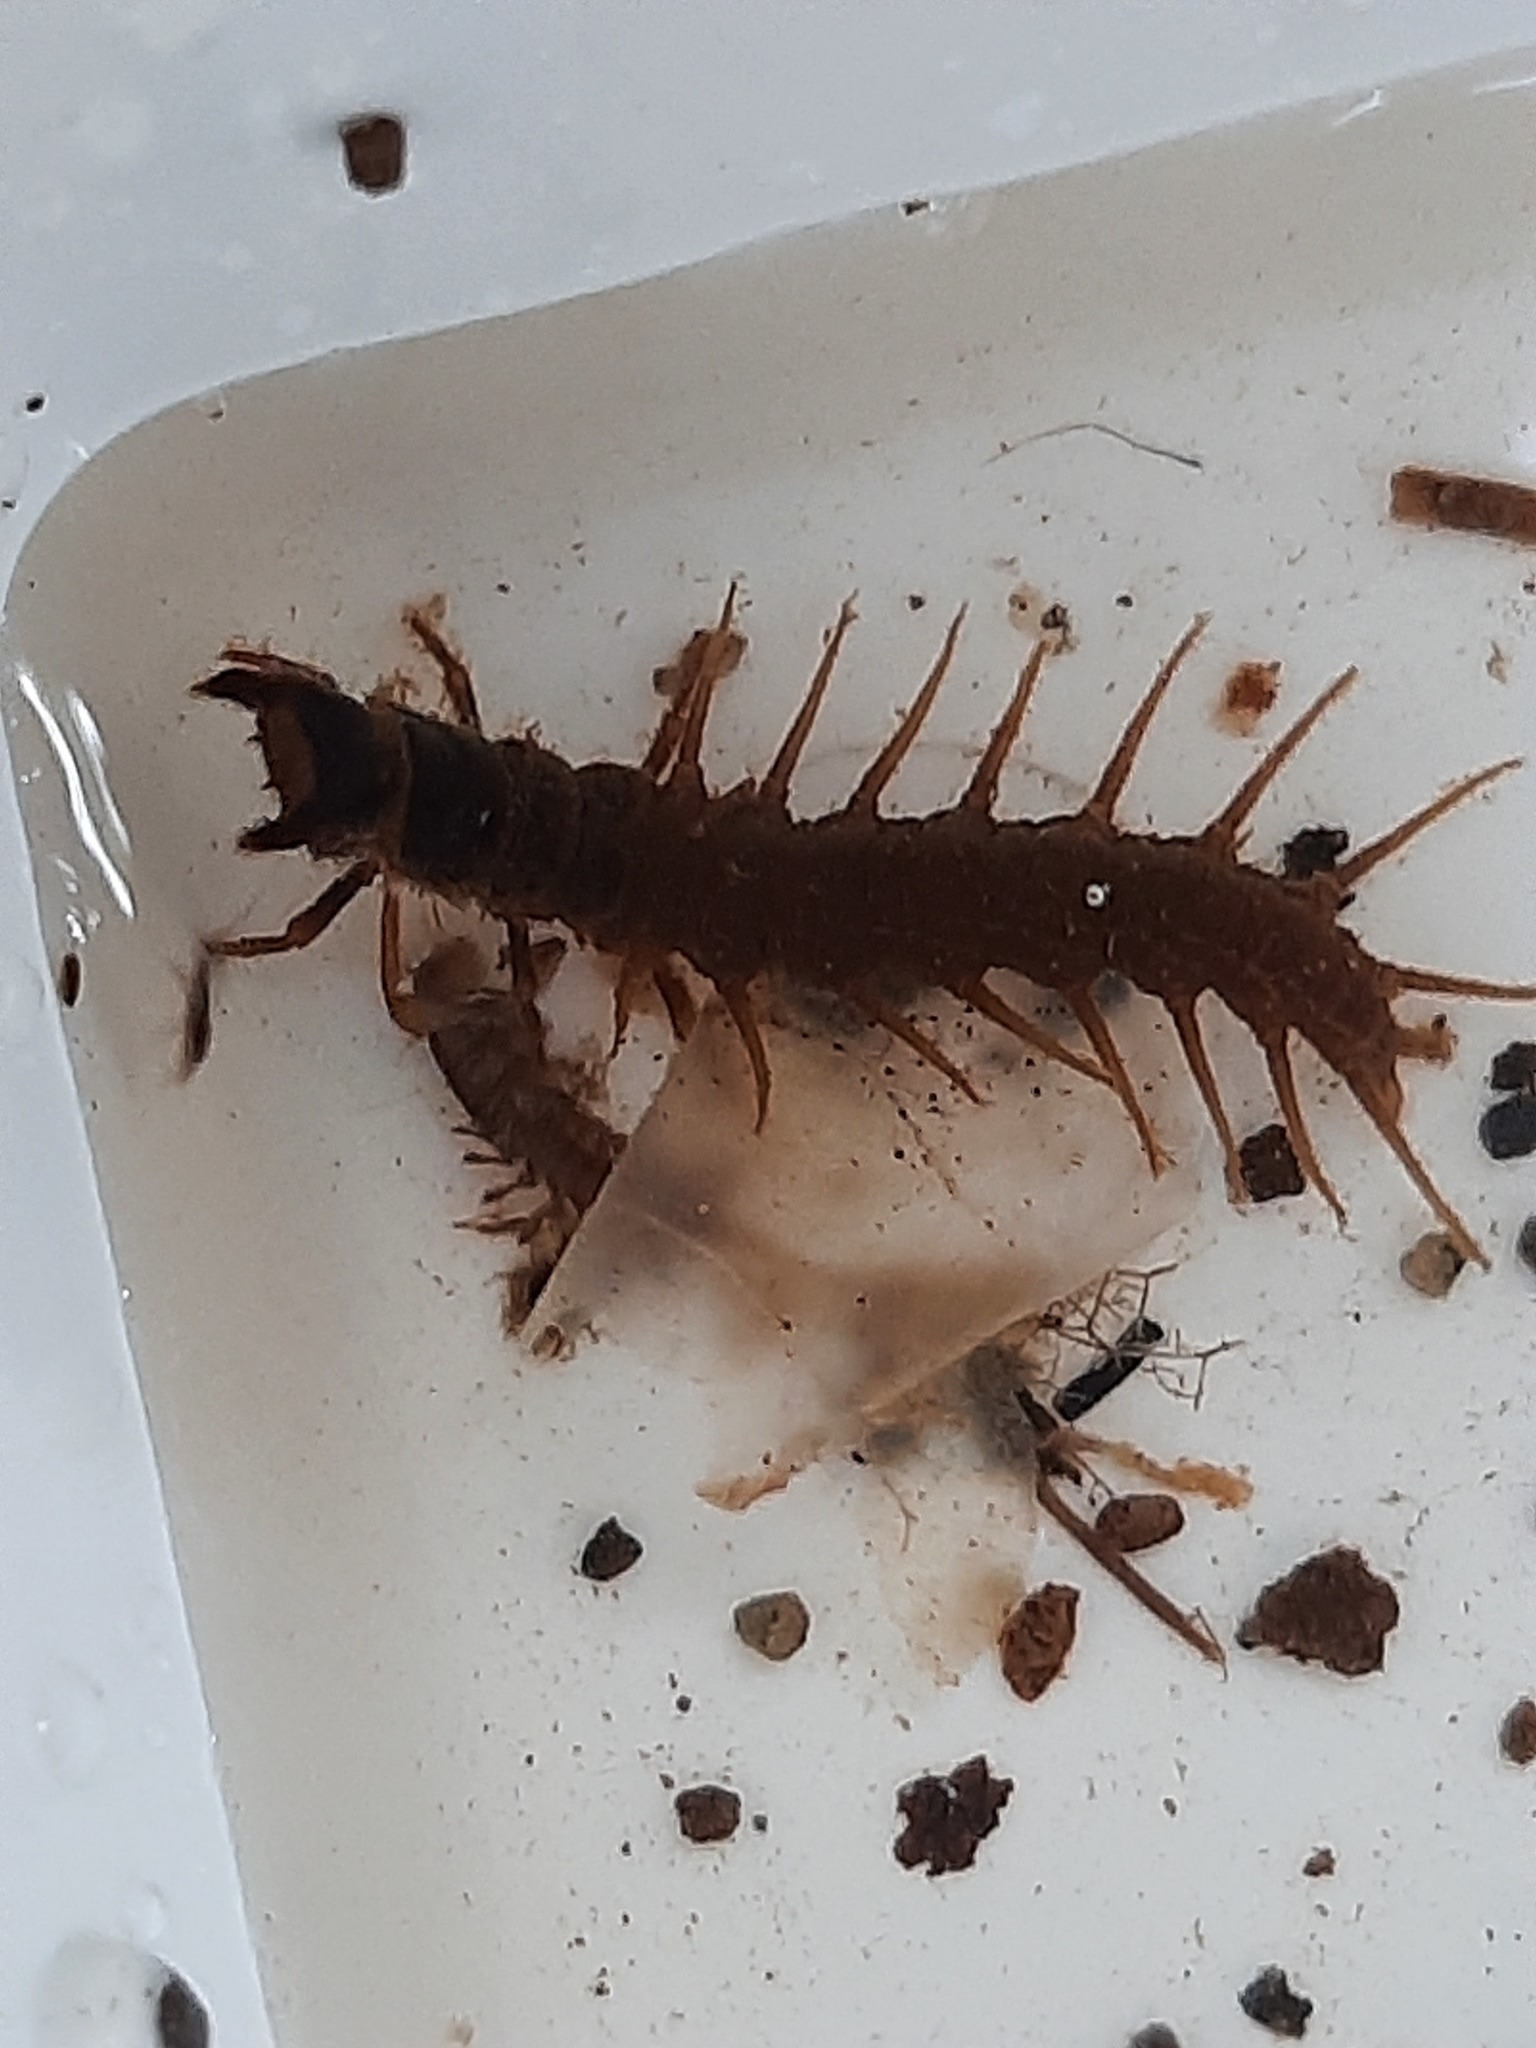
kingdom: Animalia
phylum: Arthropoda
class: Insecta
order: Megaloptera
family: Corydalidae
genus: Archichauliodes
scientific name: Archichauliodes diversus
